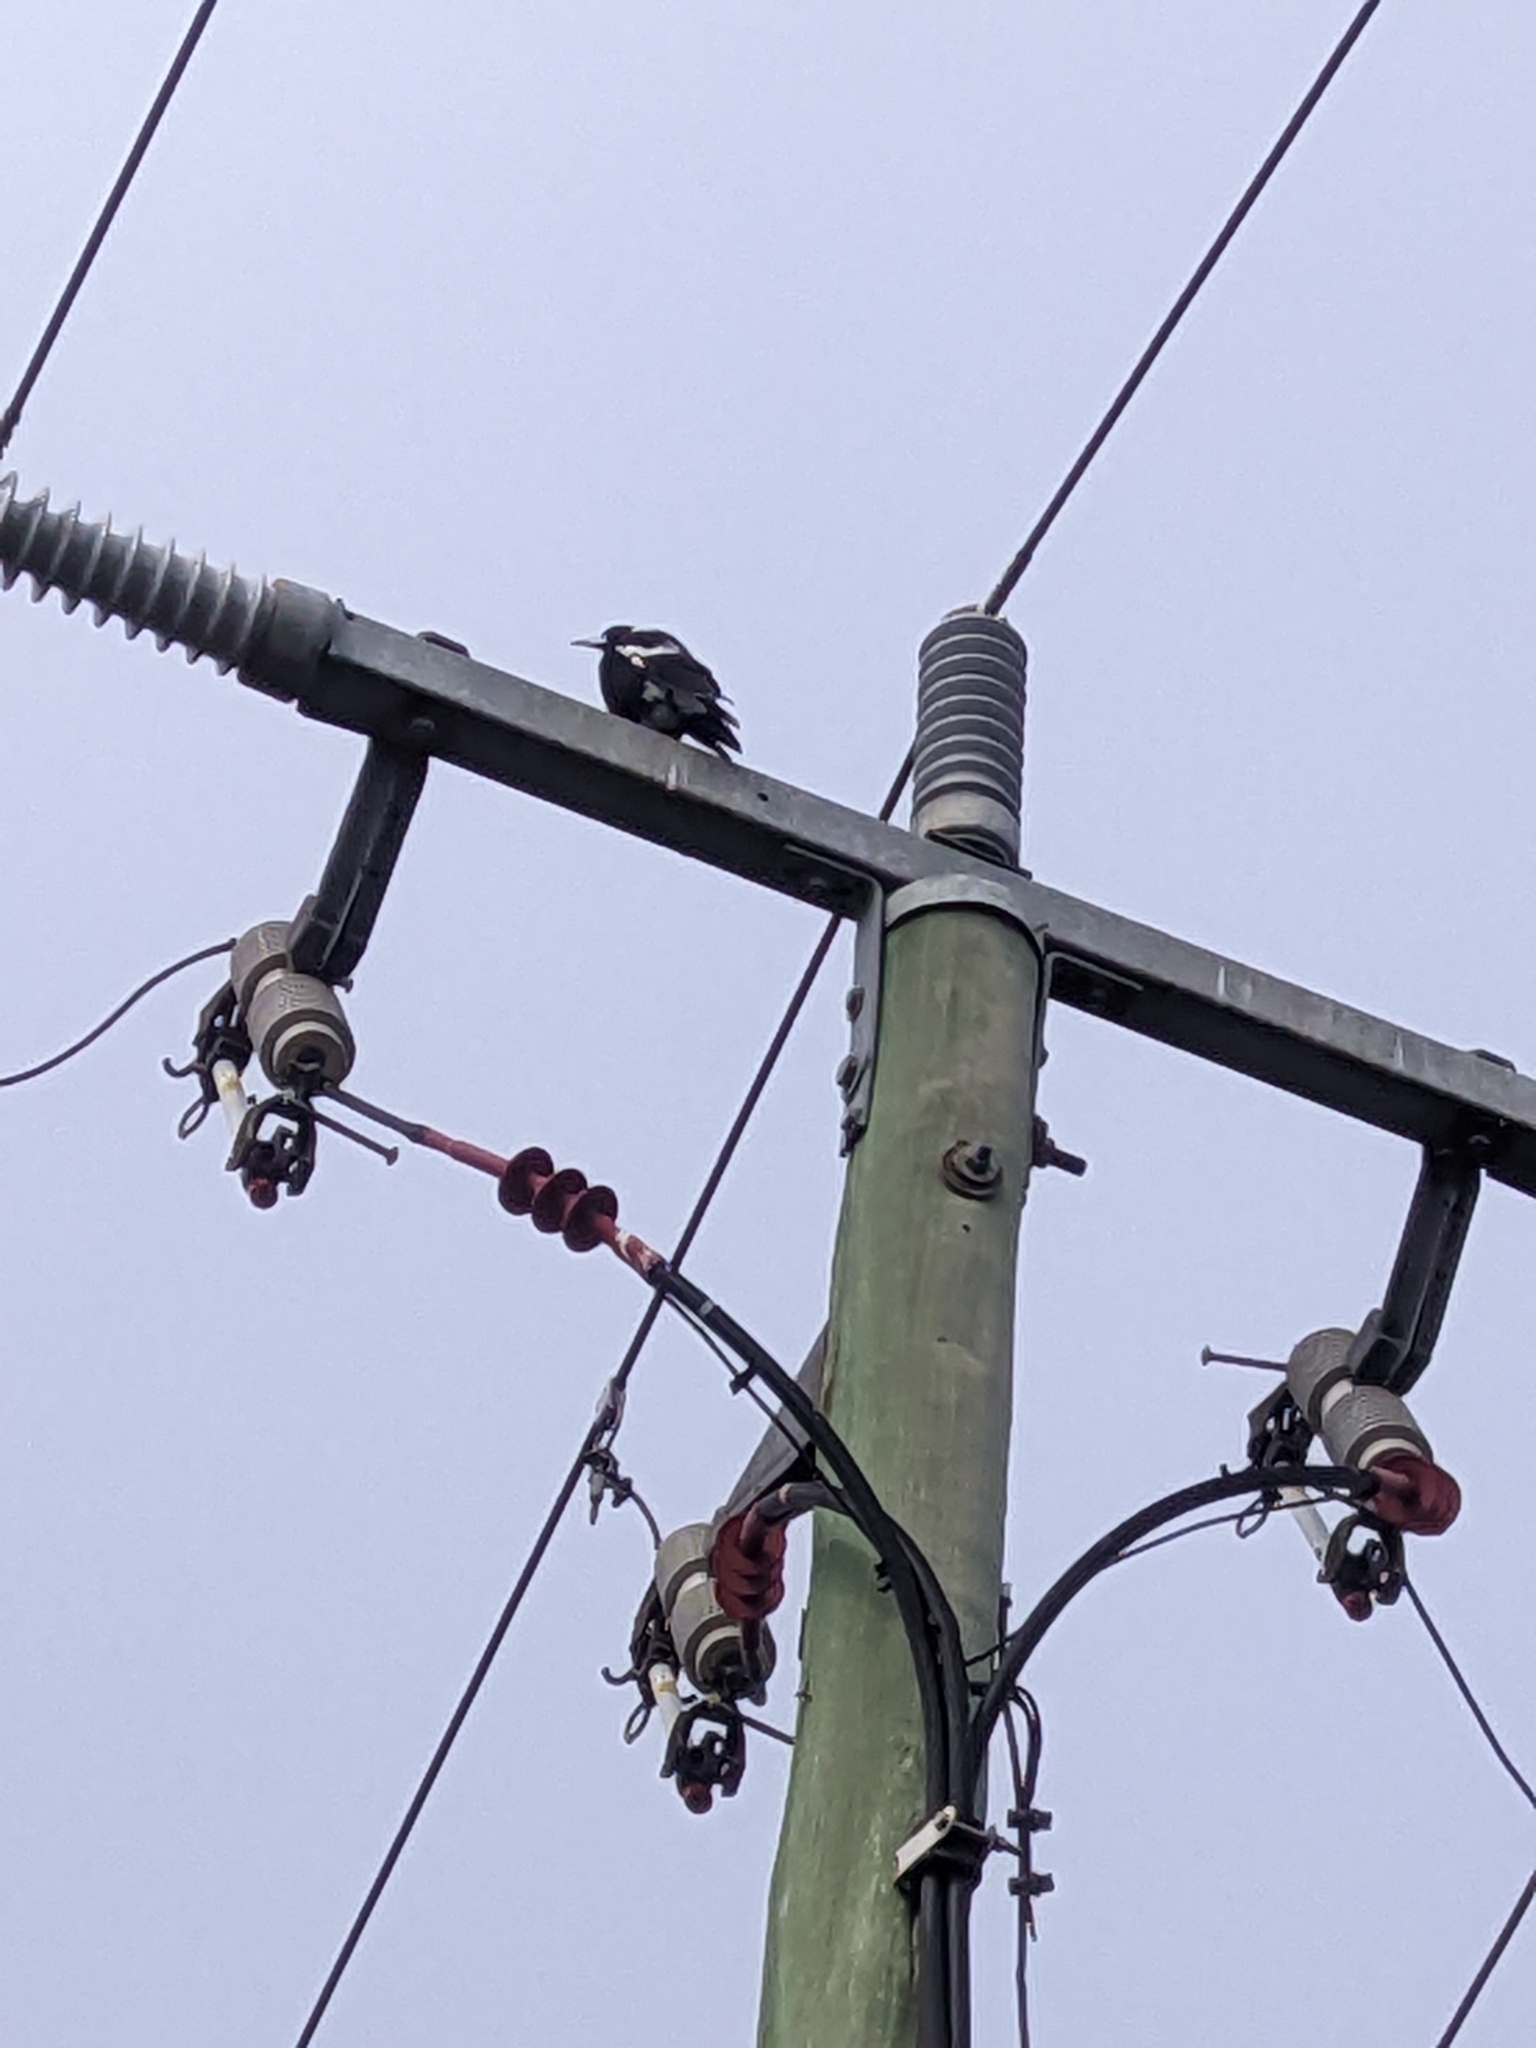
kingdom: Animalia
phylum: Chordata
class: Aves
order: Passeriformes
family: Cracticidae
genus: Gymnorhina
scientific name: Gymnorhina tibicen
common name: Australian magpie
